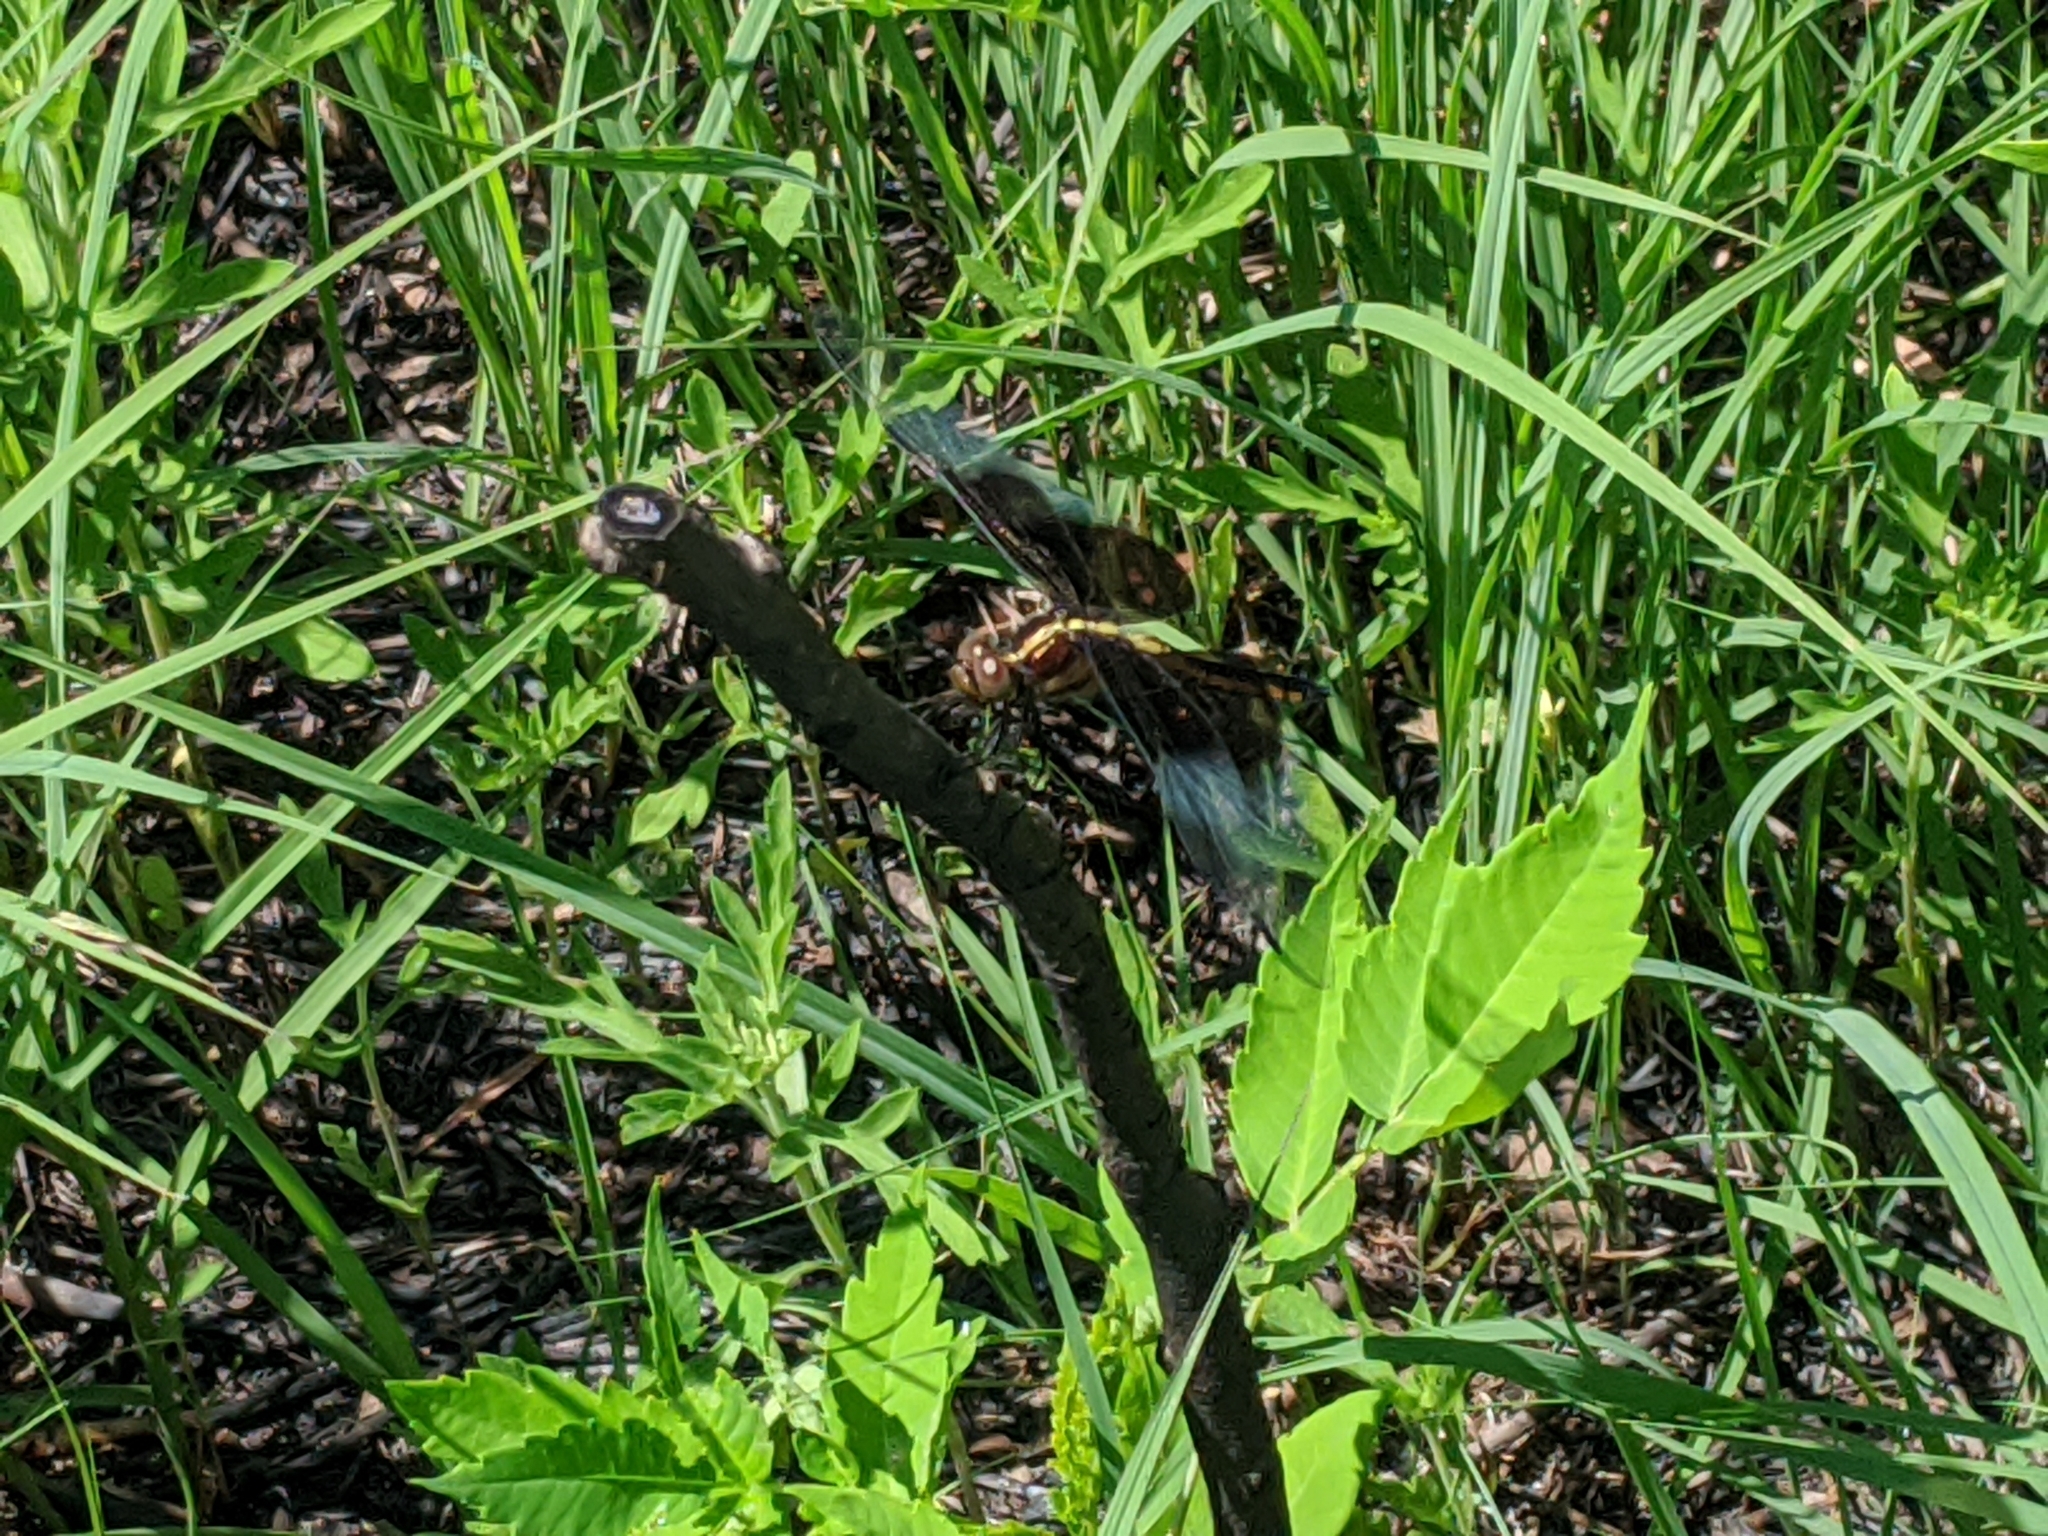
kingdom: Animalia
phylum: Arthropoda
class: Insecta
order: Odonata
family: Libellulidae
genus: Libellula
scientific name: Libellula luctuosa
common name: Widow skimmer
